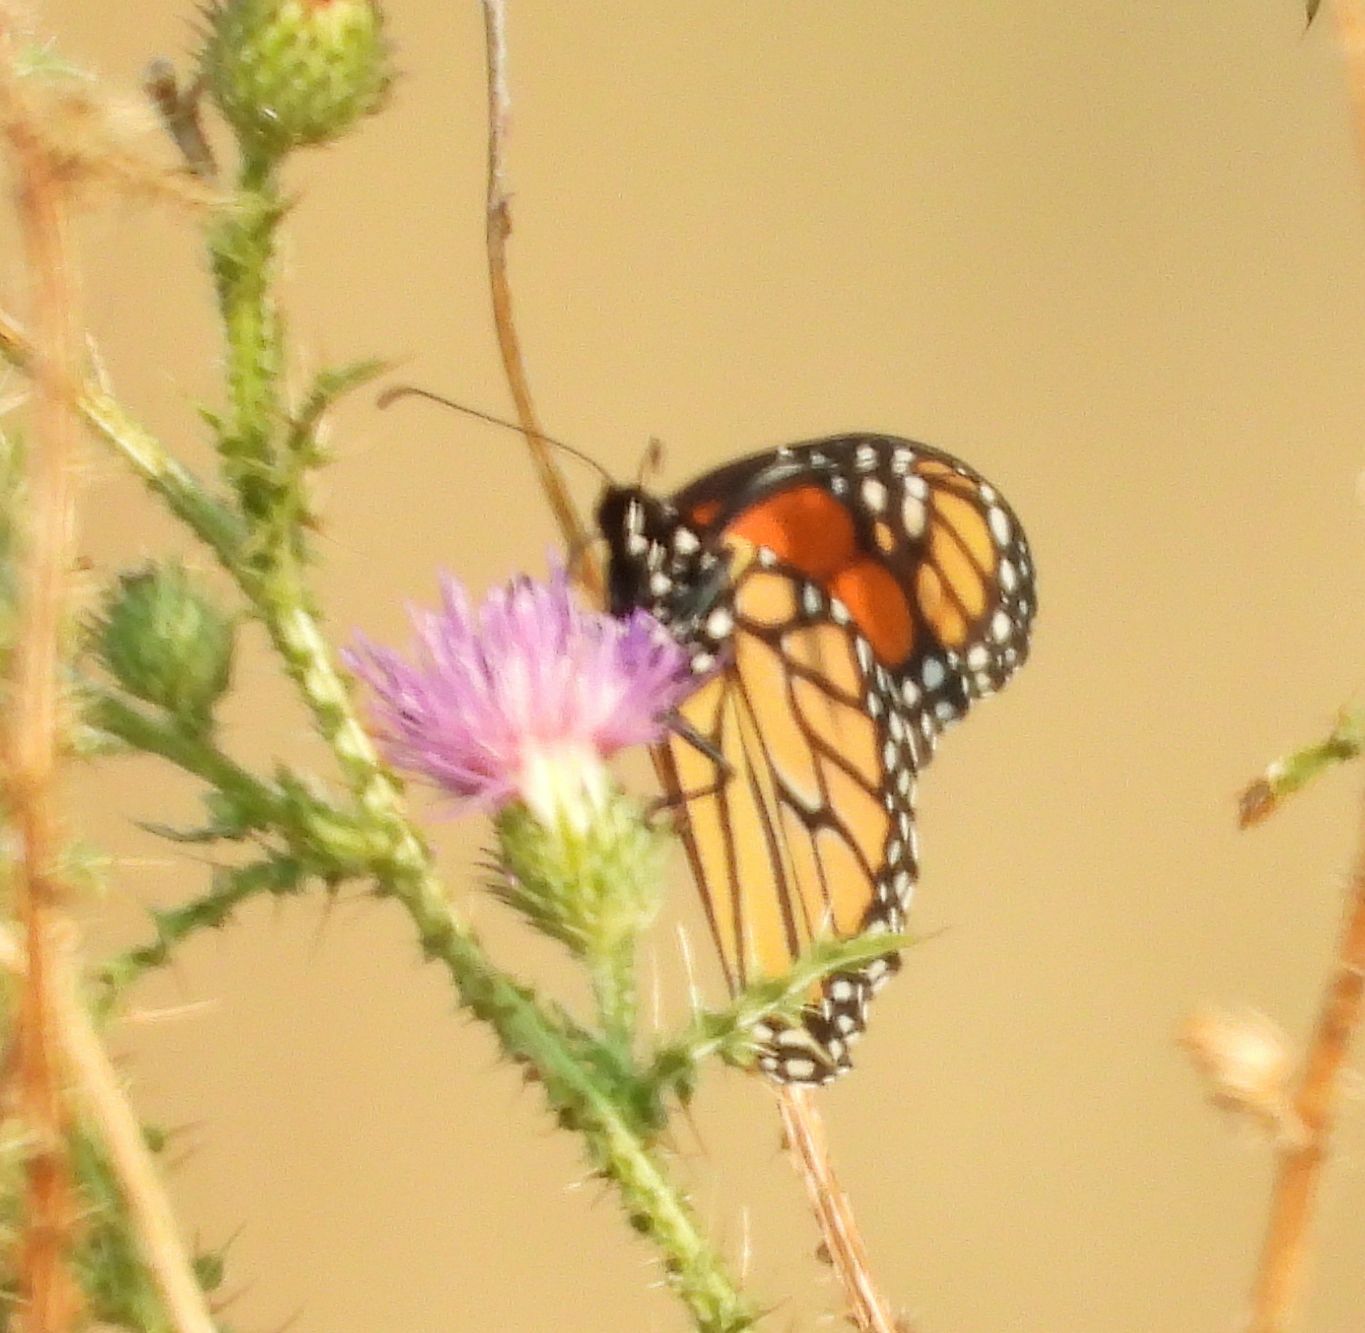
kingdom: Animalia
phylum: Arthropoda
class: Insecta
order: Lepidoptera
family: Nymphalidae
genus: Danaus
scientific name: Danaus plexippus
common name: Monarch
